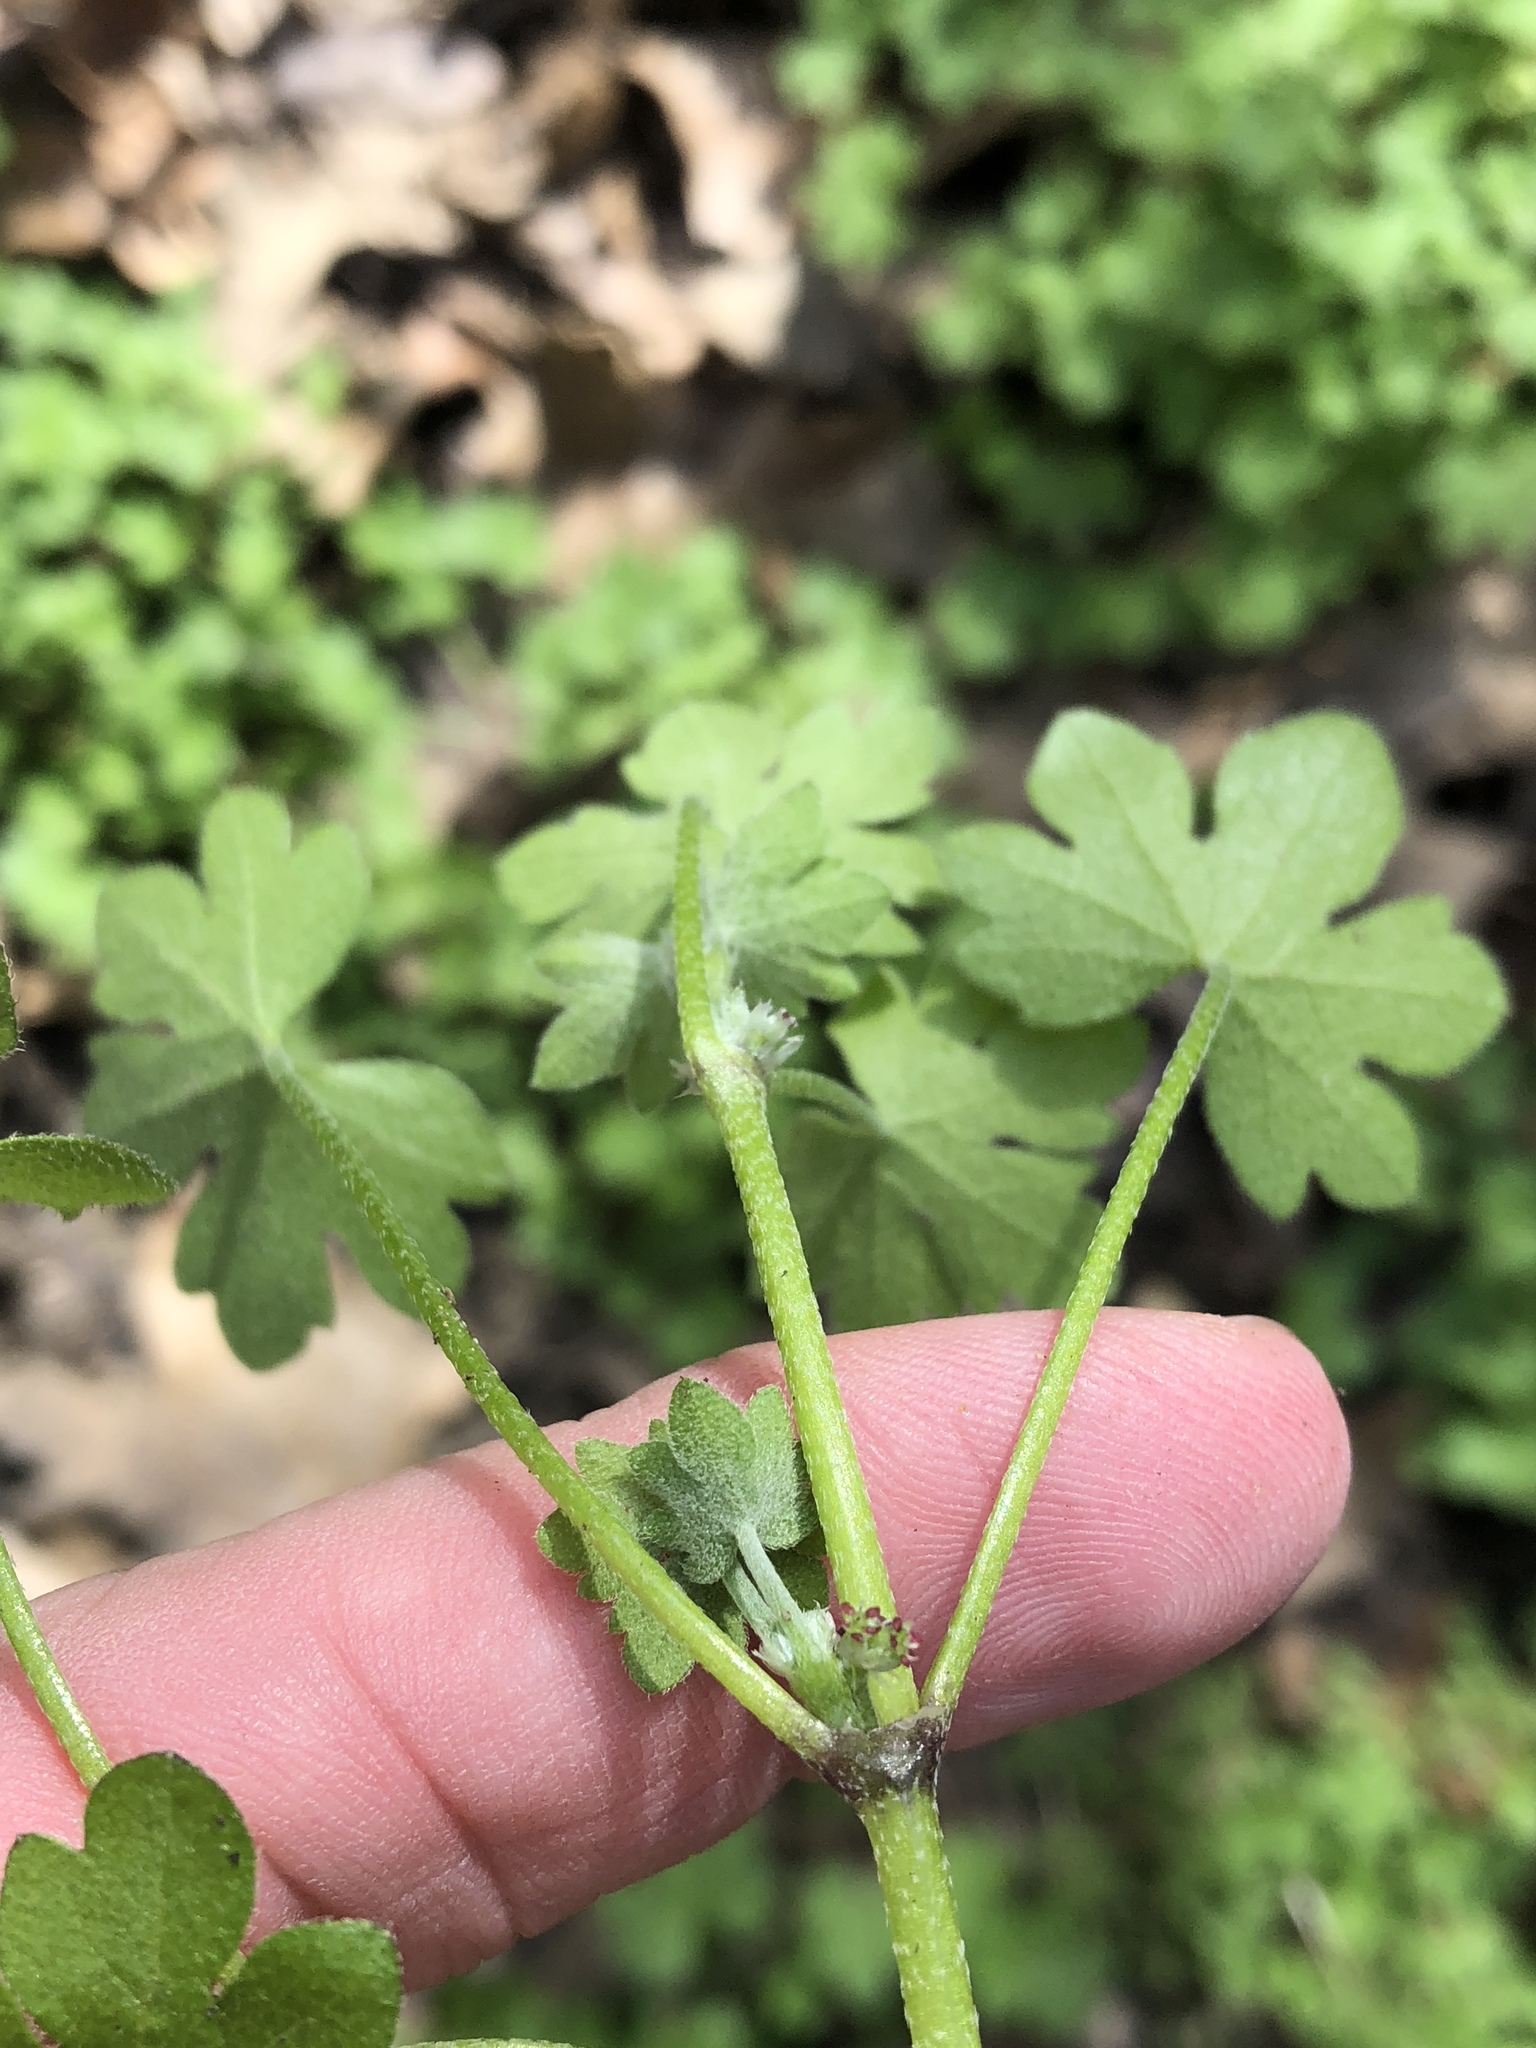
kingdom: Plantae
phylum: Tracheophyta
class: Magnoliopsida
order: Apiales
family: Apiaceae
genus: Bowlesia
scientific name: Bowlesia incana
